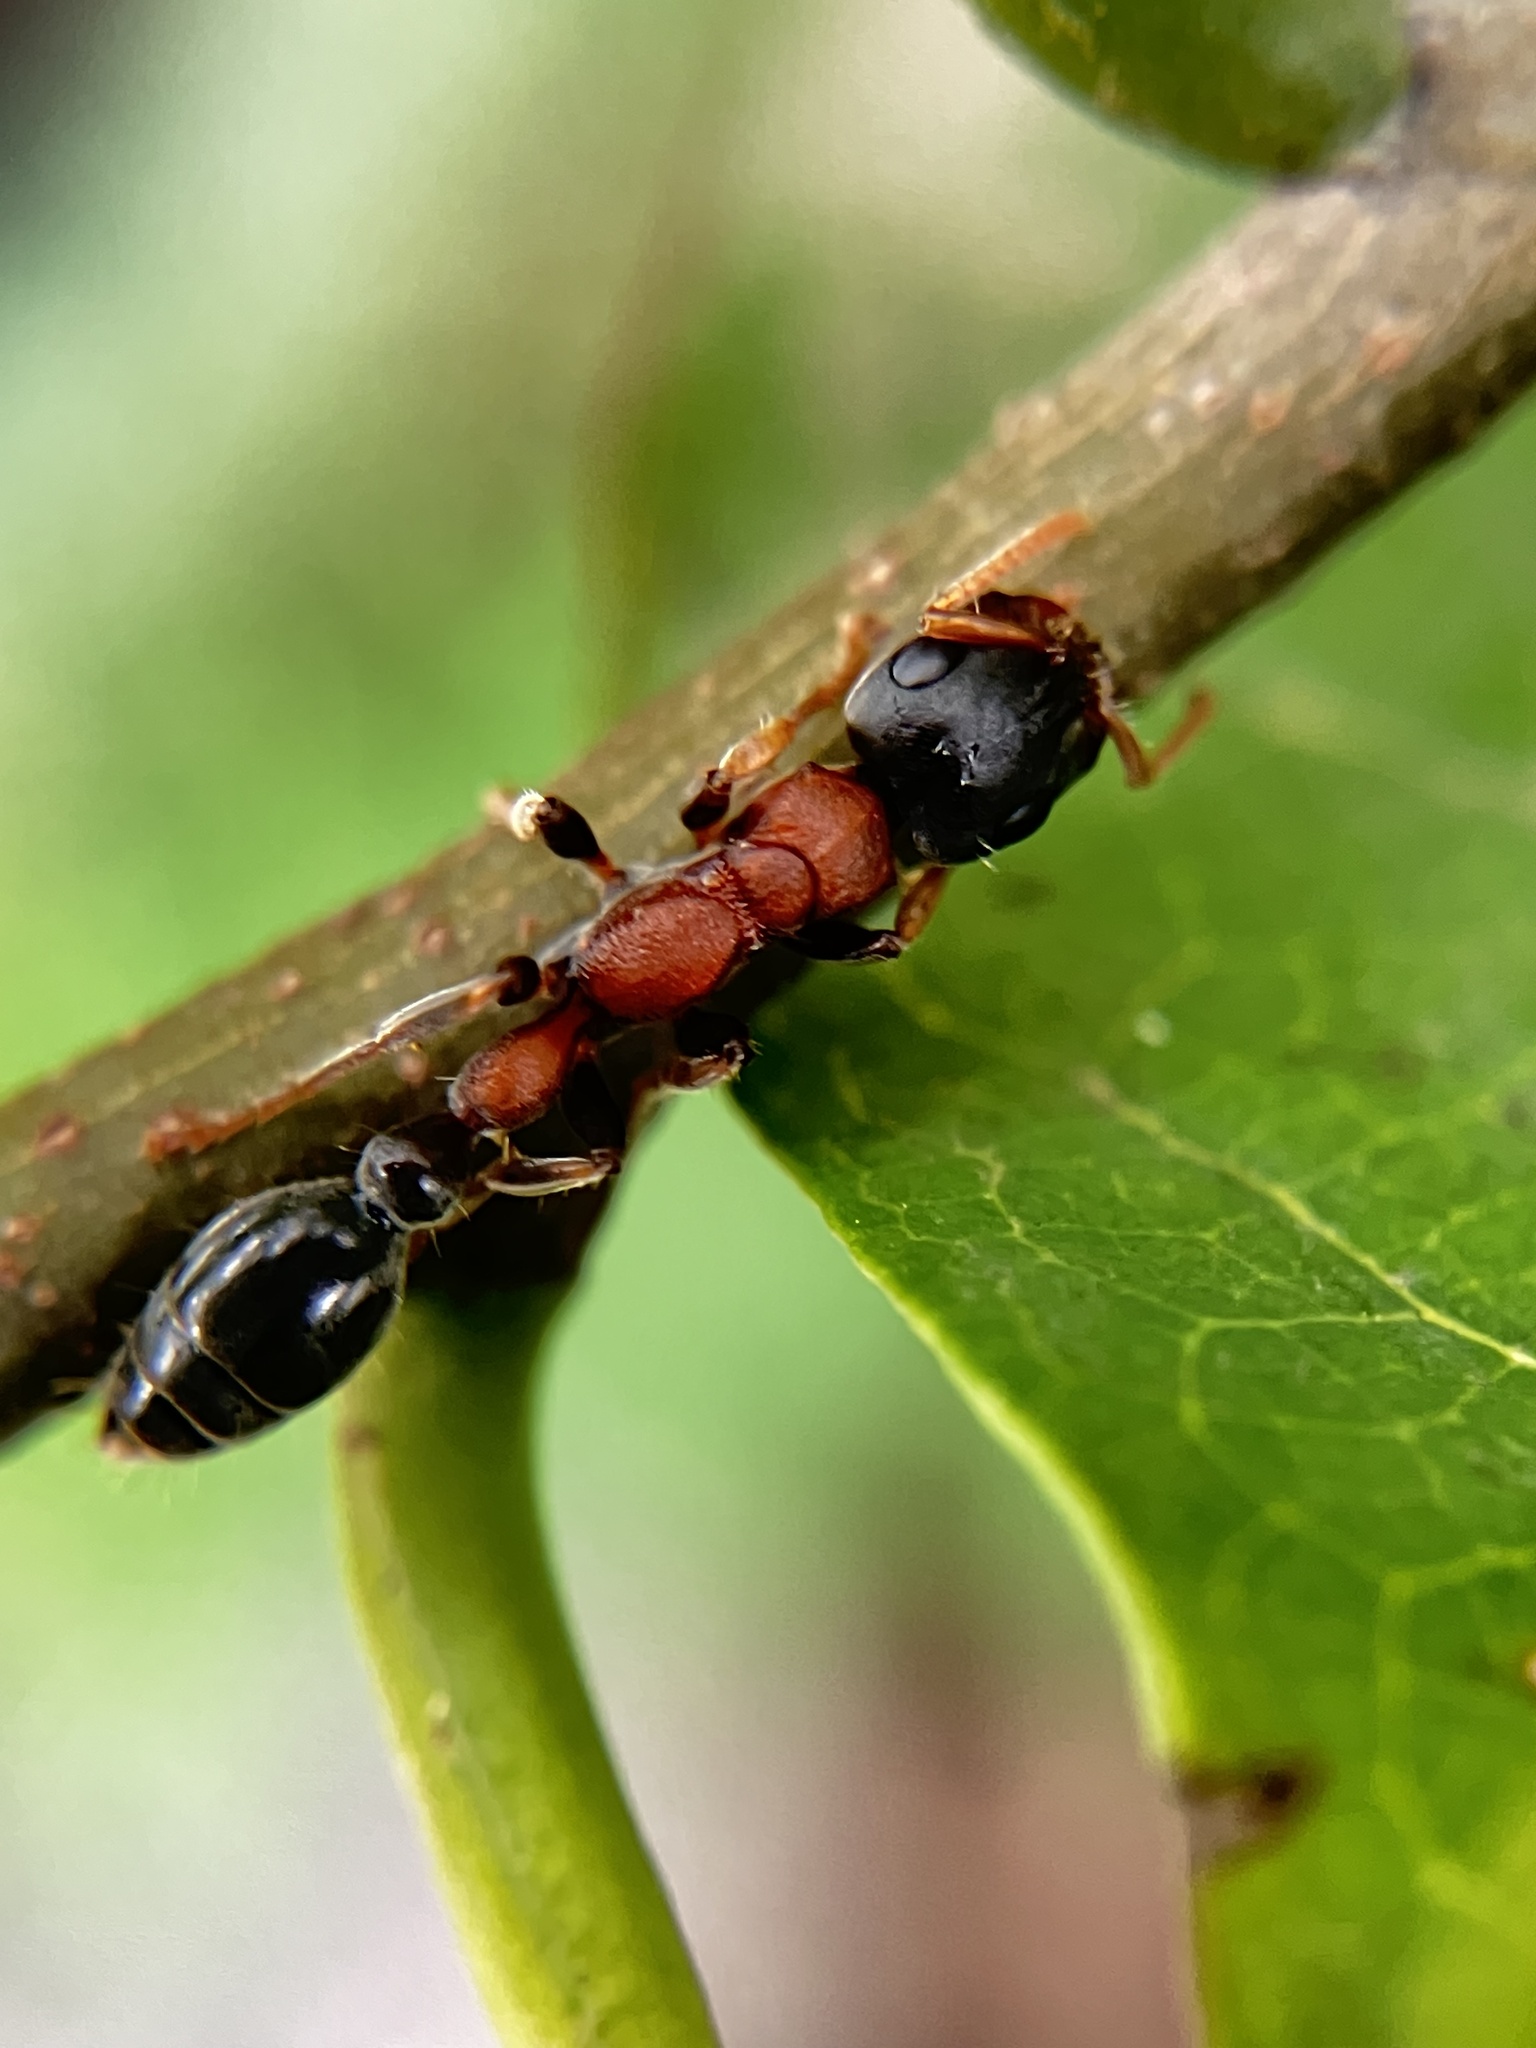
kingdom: Animalia
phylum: Arthropoda
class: Insecta
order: Hymenoptera
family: Formicidae
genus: Tetraponera
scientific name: Tetraponera rufonigra
